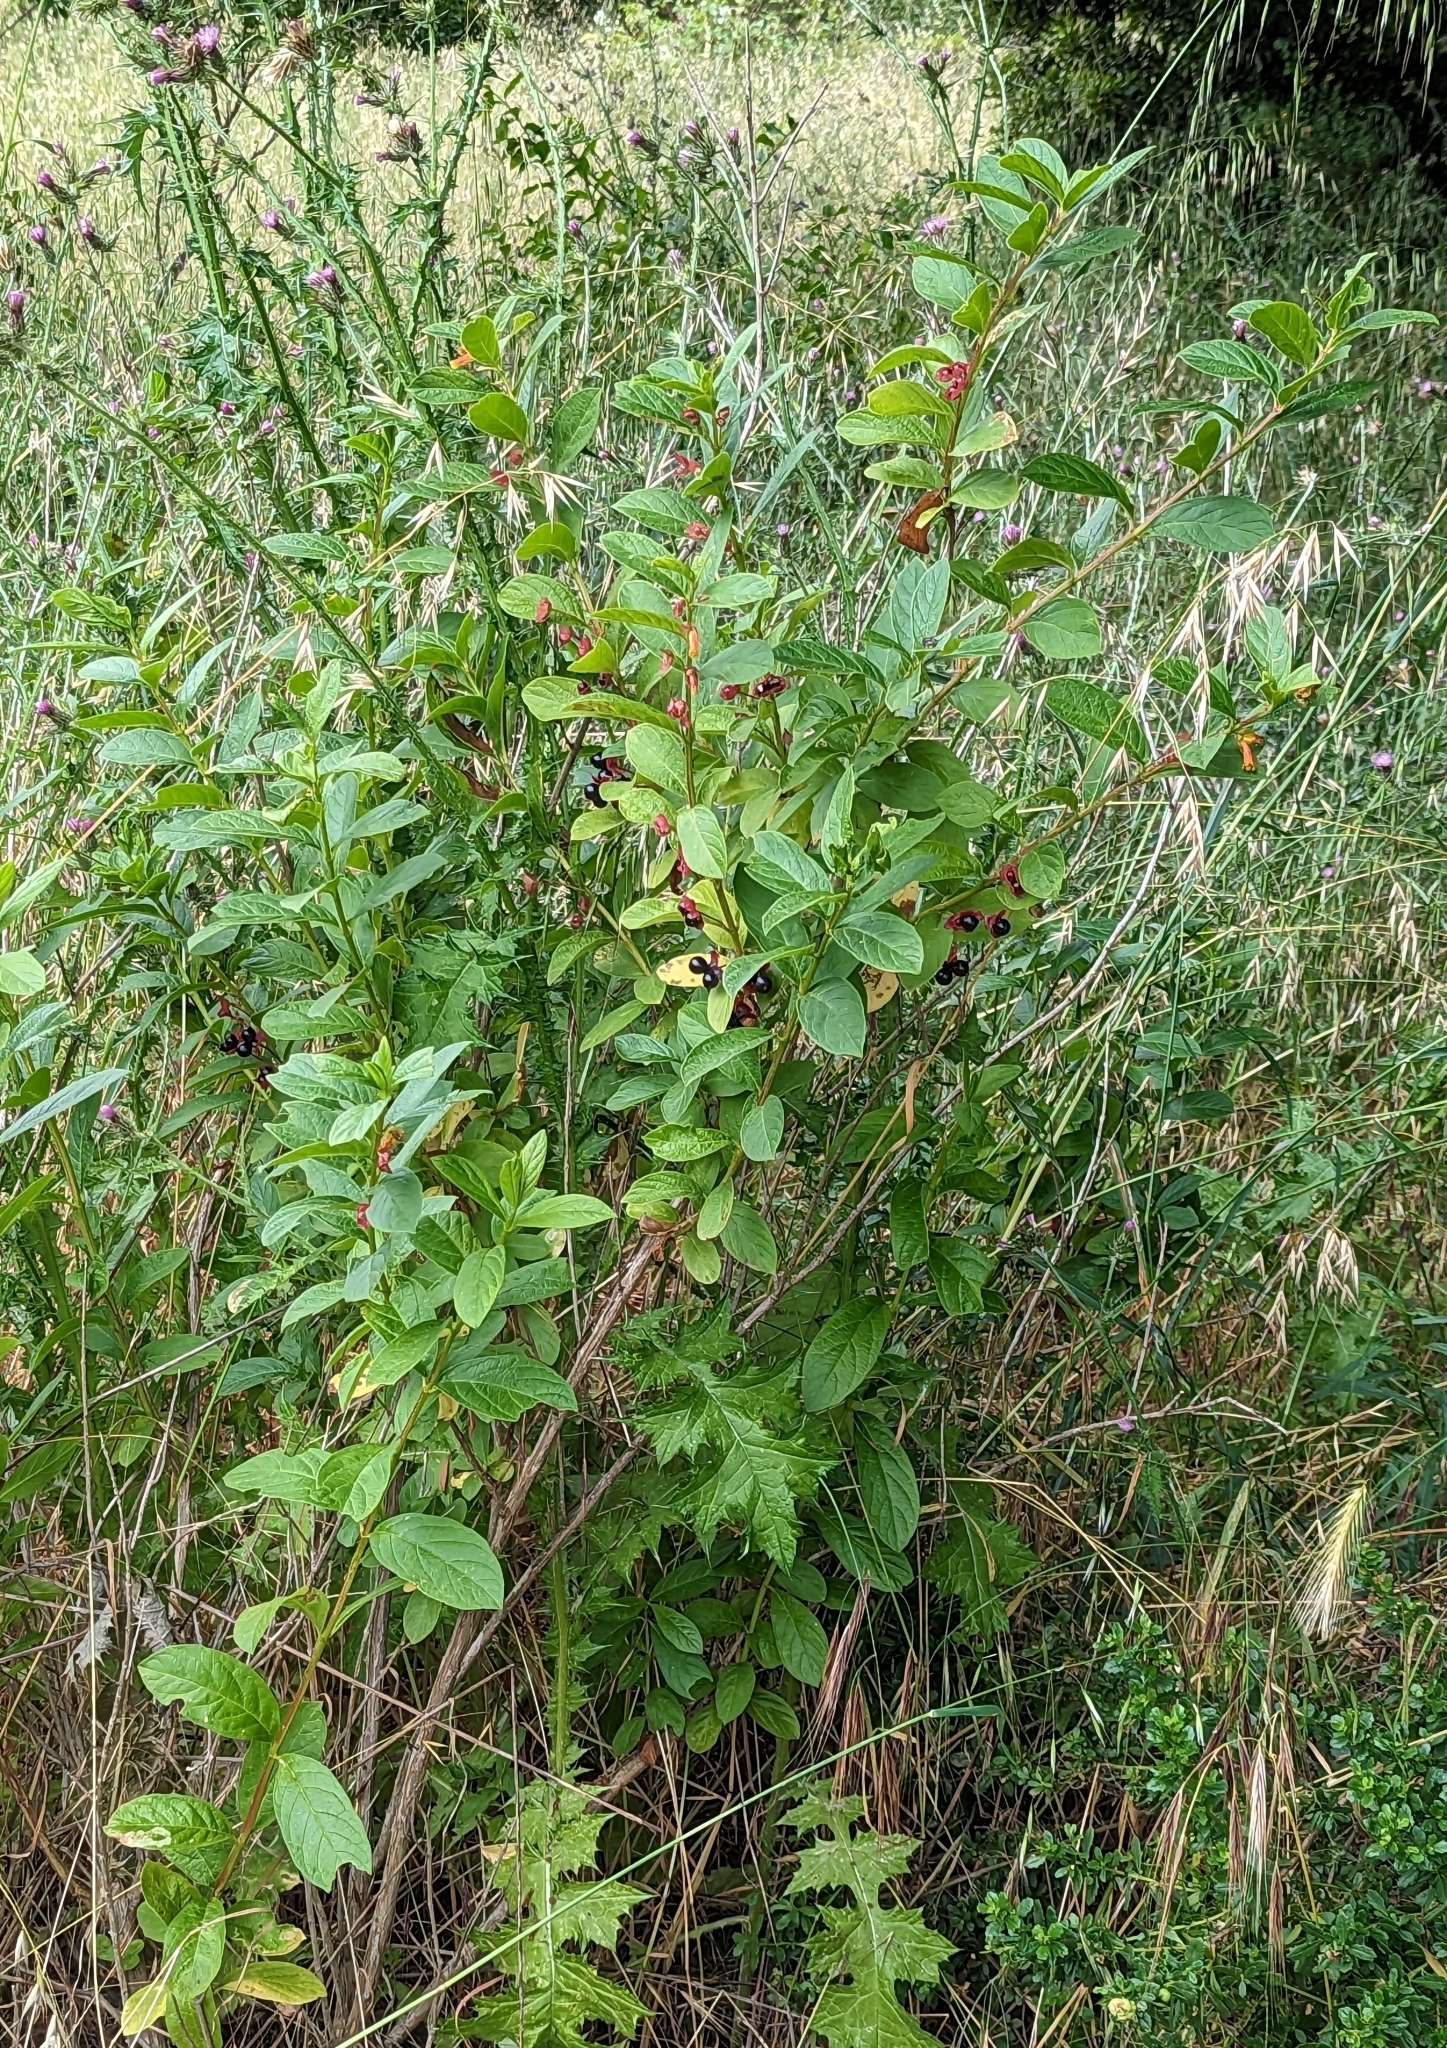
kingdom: Plantae
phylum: Tracheophyta
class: Magnoliopsida
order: Dipsacales
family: Caprifoliaceae
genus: Lonicera
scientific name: Lonicera involucrata
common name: Californian honeysuckle
